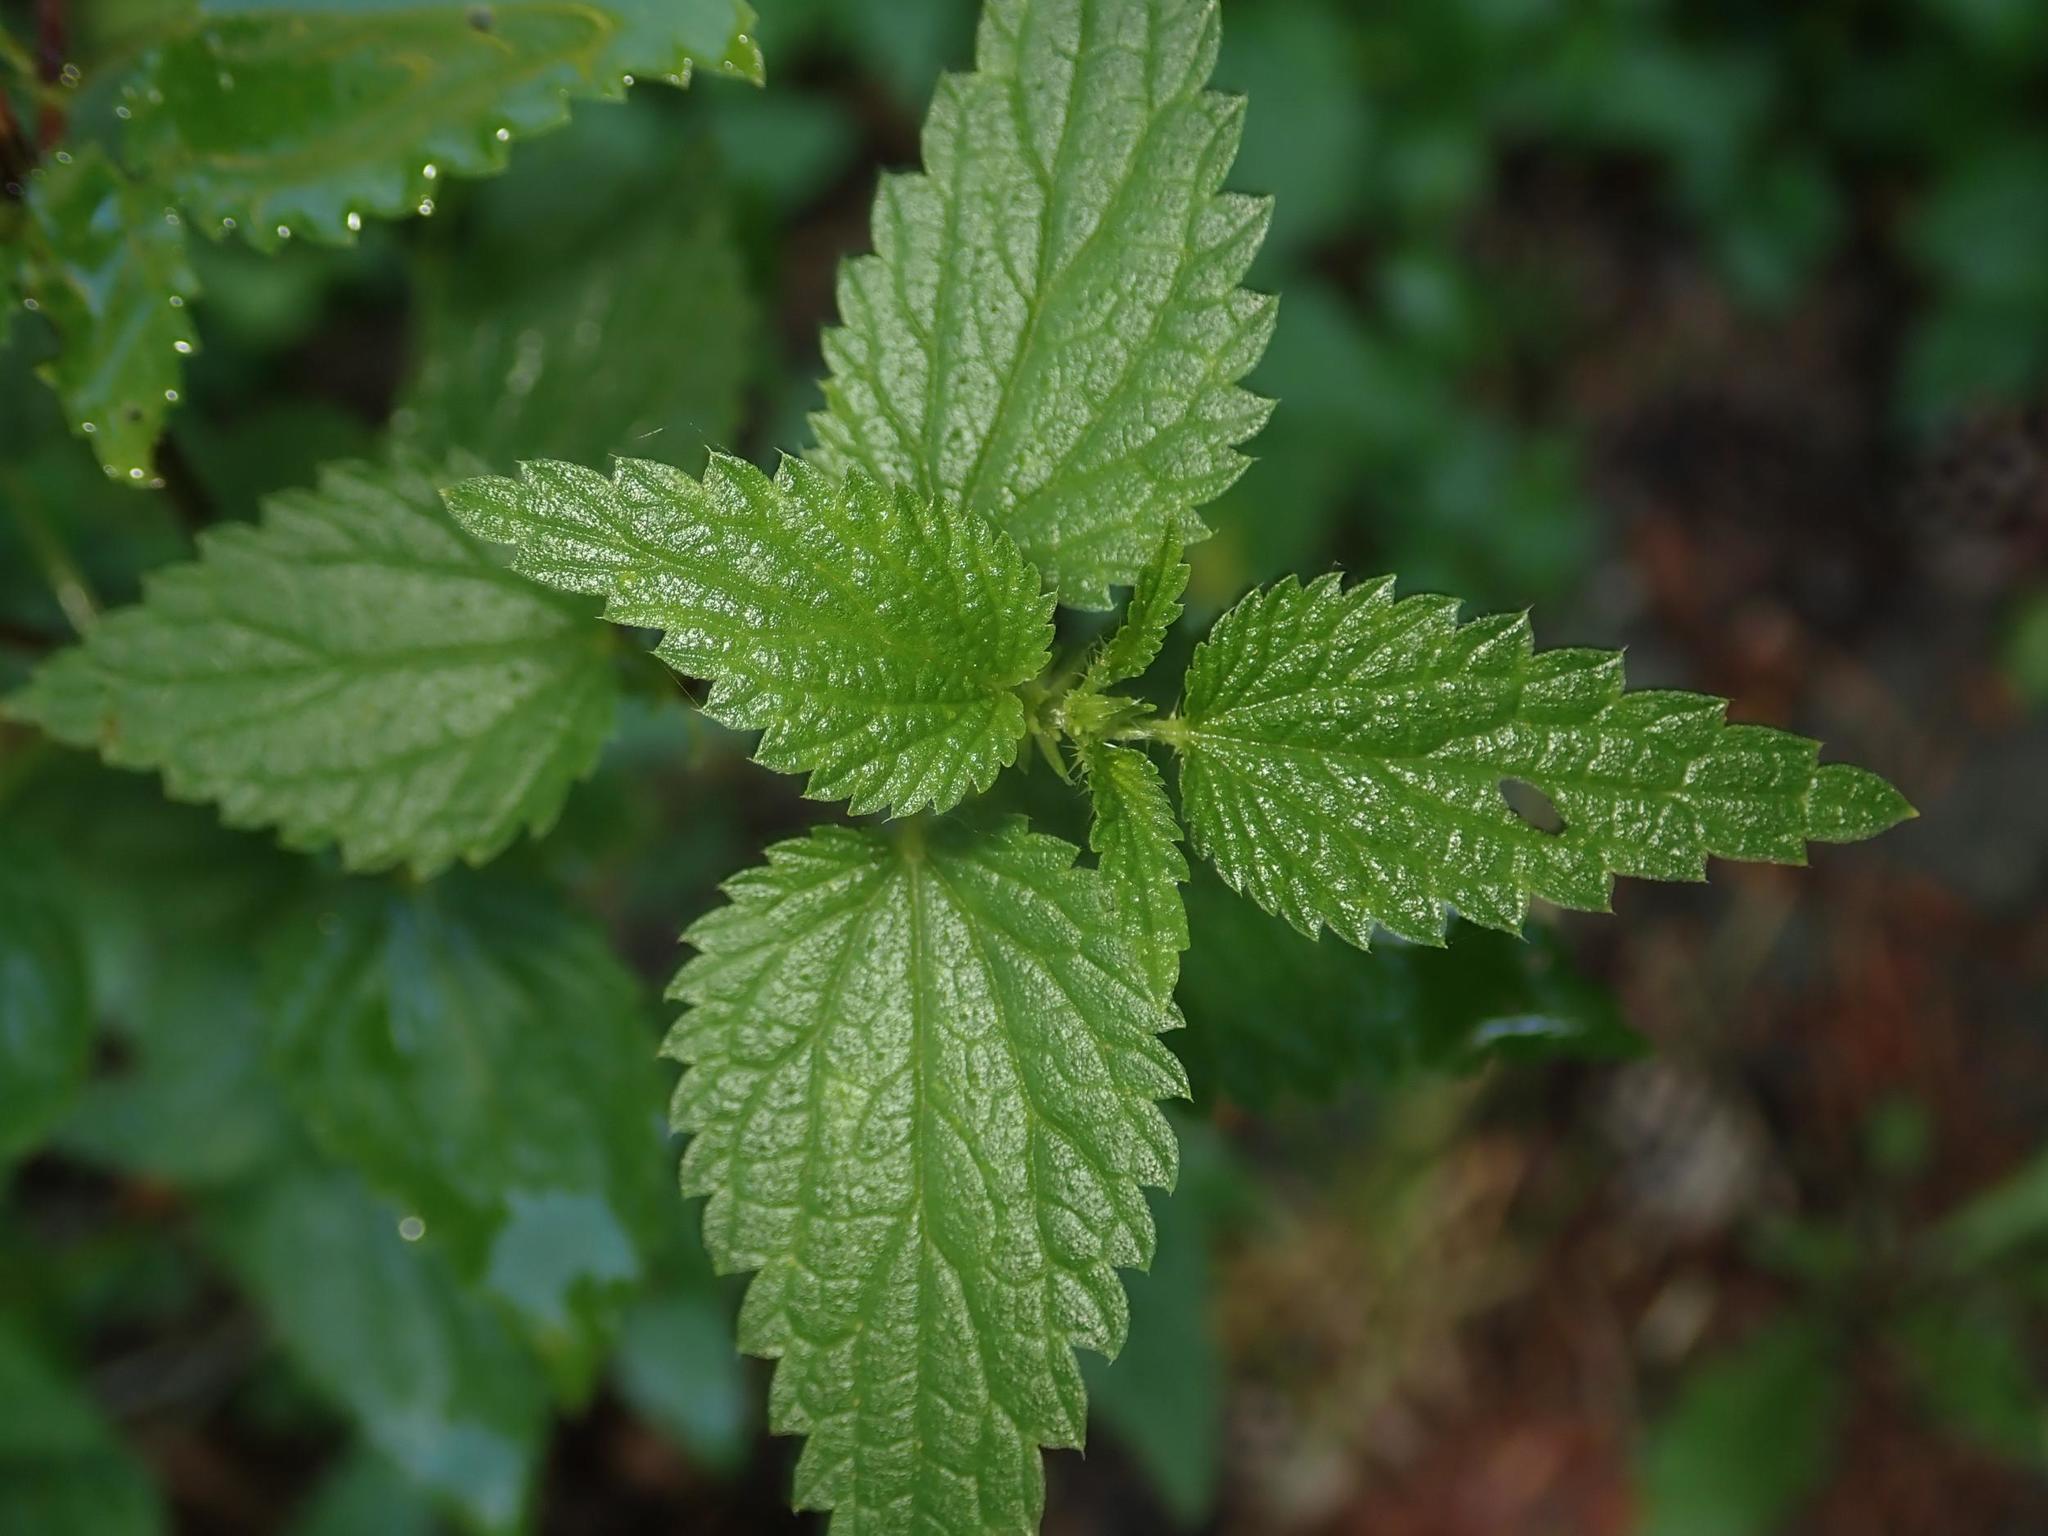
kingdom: Plantae
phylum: Tracheophyta
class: Magnoliopsida
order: Rosales
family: Urticaceae
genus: Urtica
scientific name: Urtica dioica
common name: Common nettle
